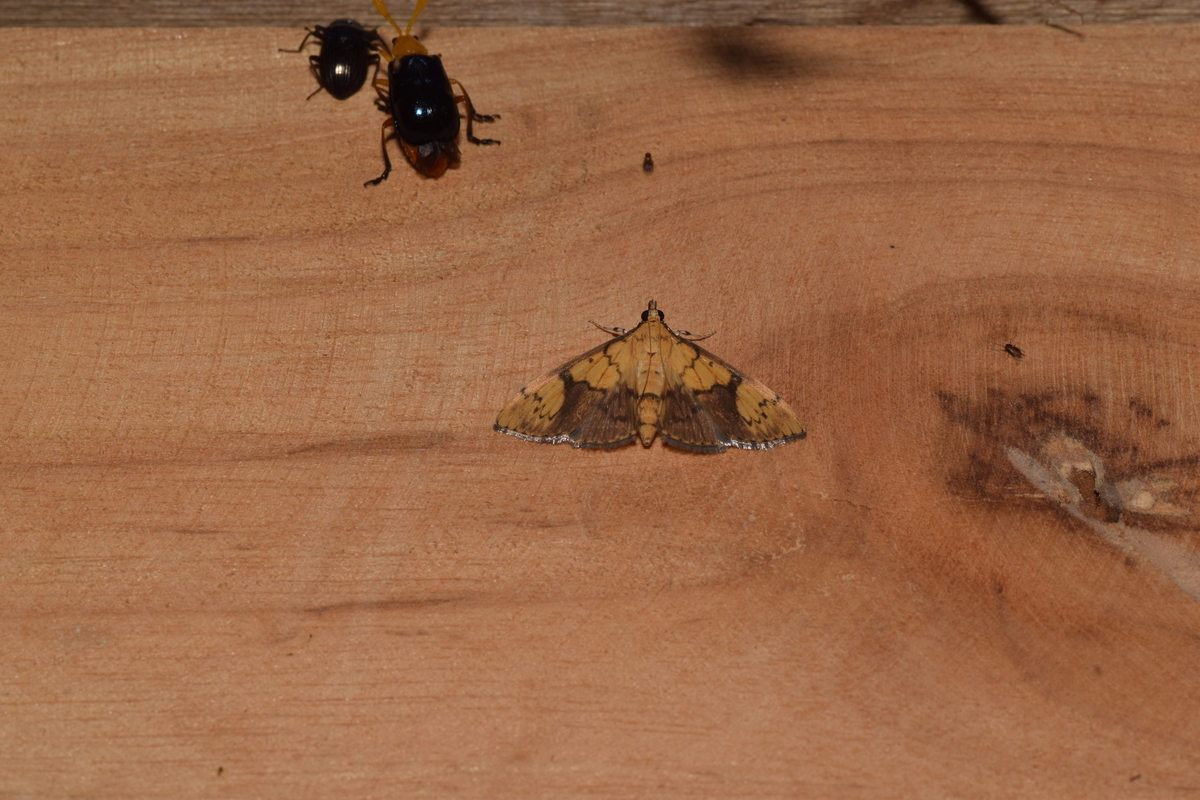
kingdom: Animalia
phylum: Arthropoda
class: Insecta
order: Lepidoptera
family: Crambidae
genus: Patania
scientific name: Patania
